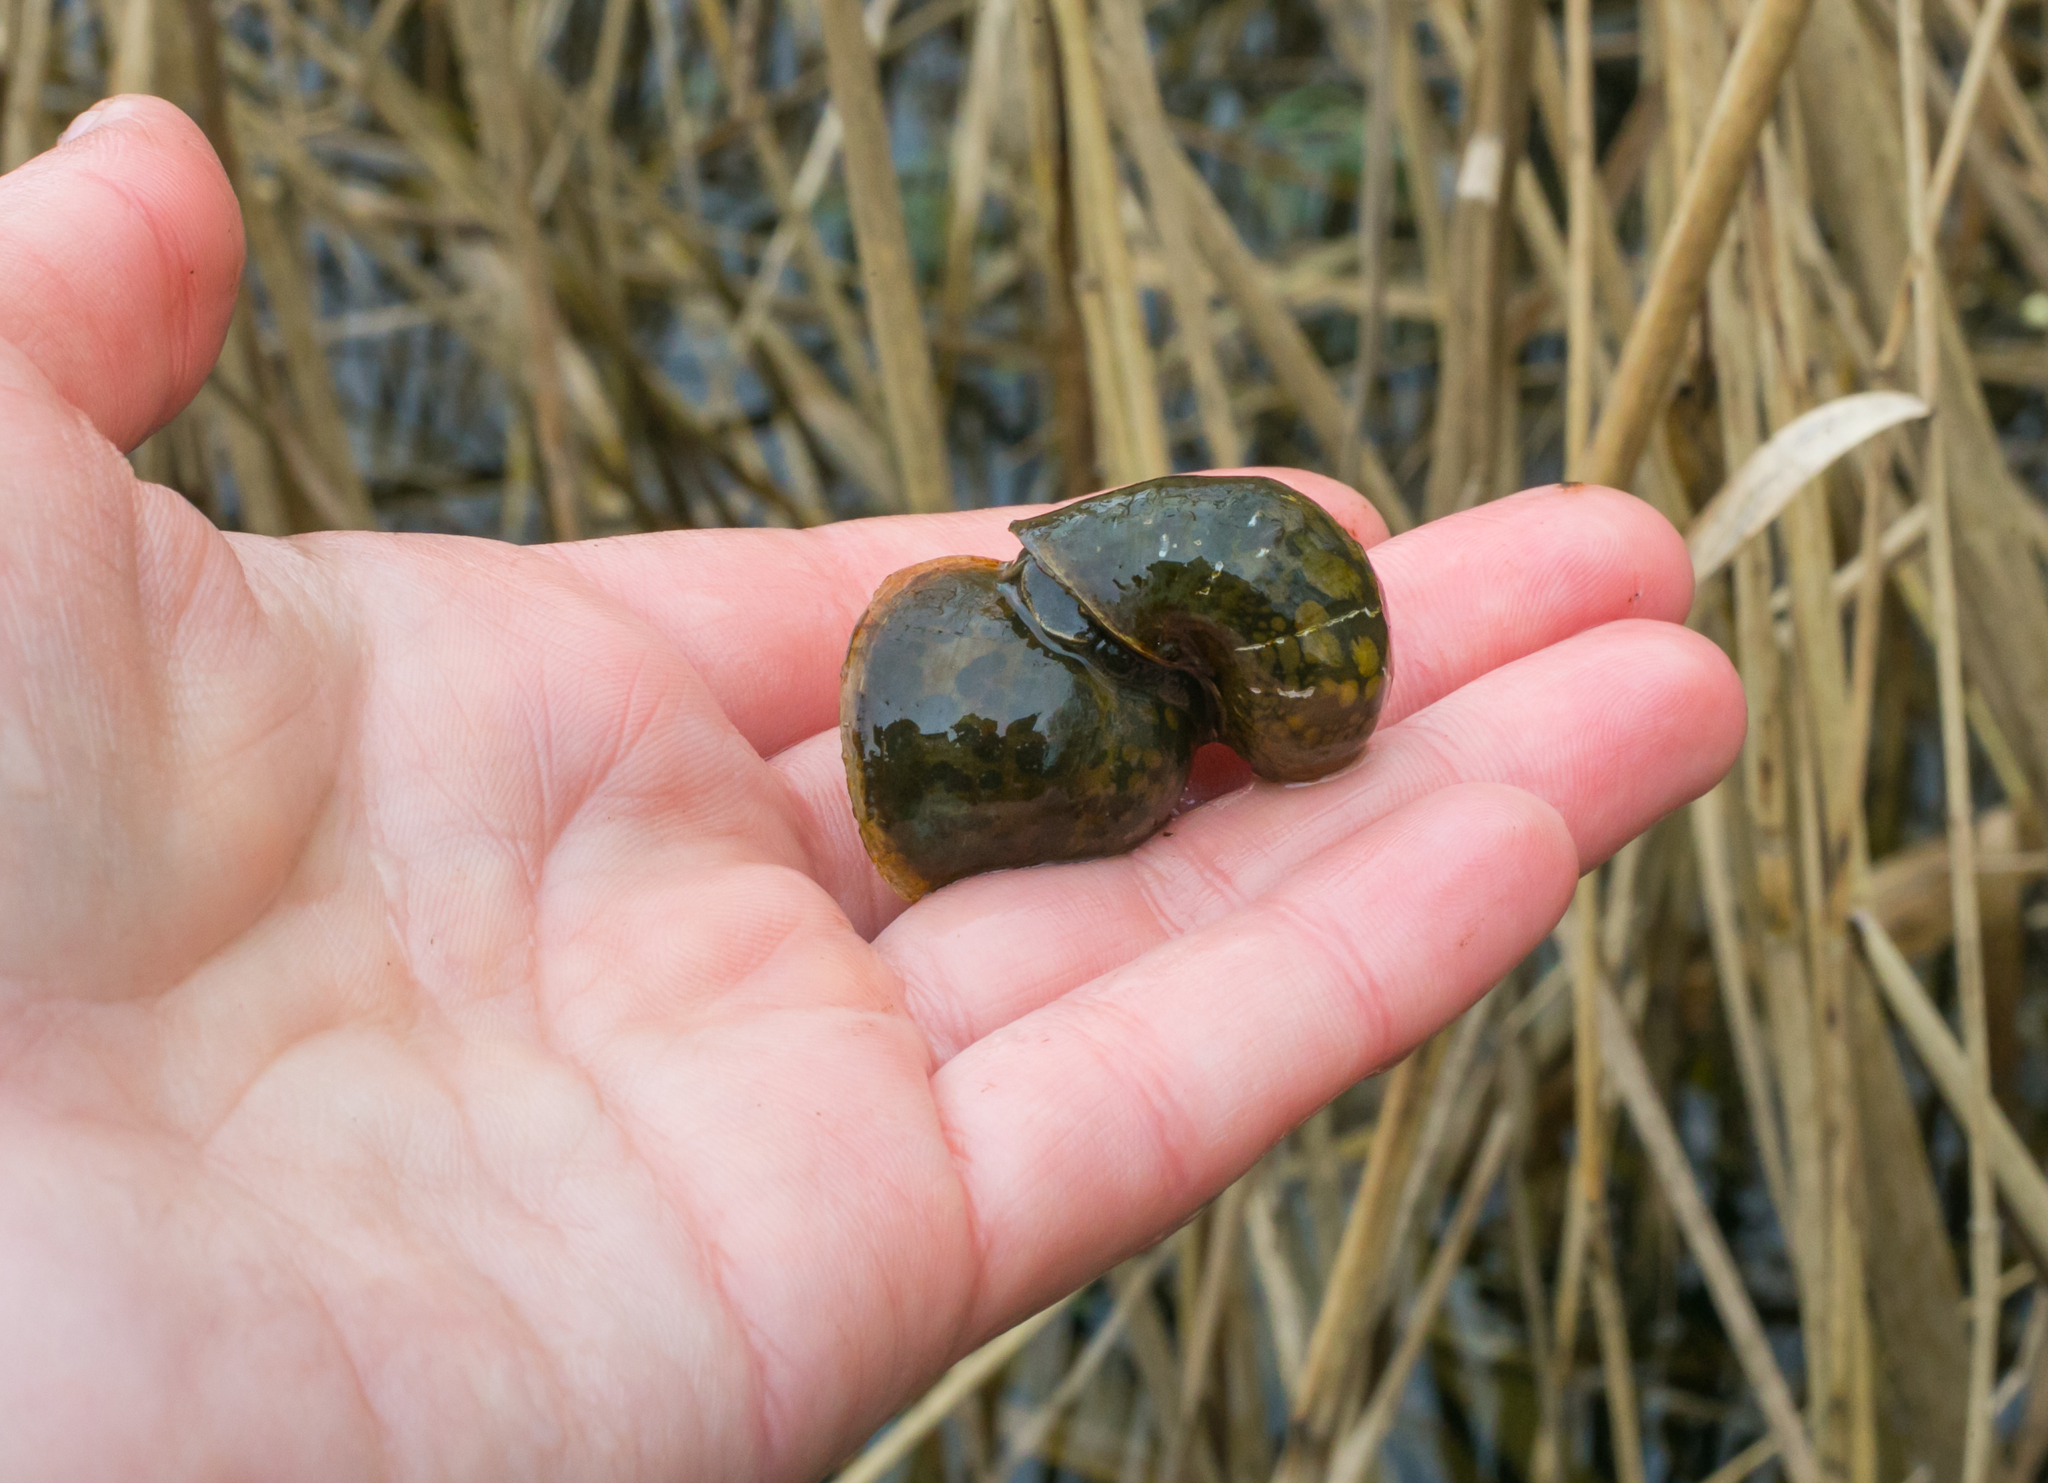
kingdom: Animalia
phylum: Mollusca
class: Gastropoda
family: Lymnaeidae
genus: Radix
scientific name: Radix auricularia
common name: Ear pond snail
